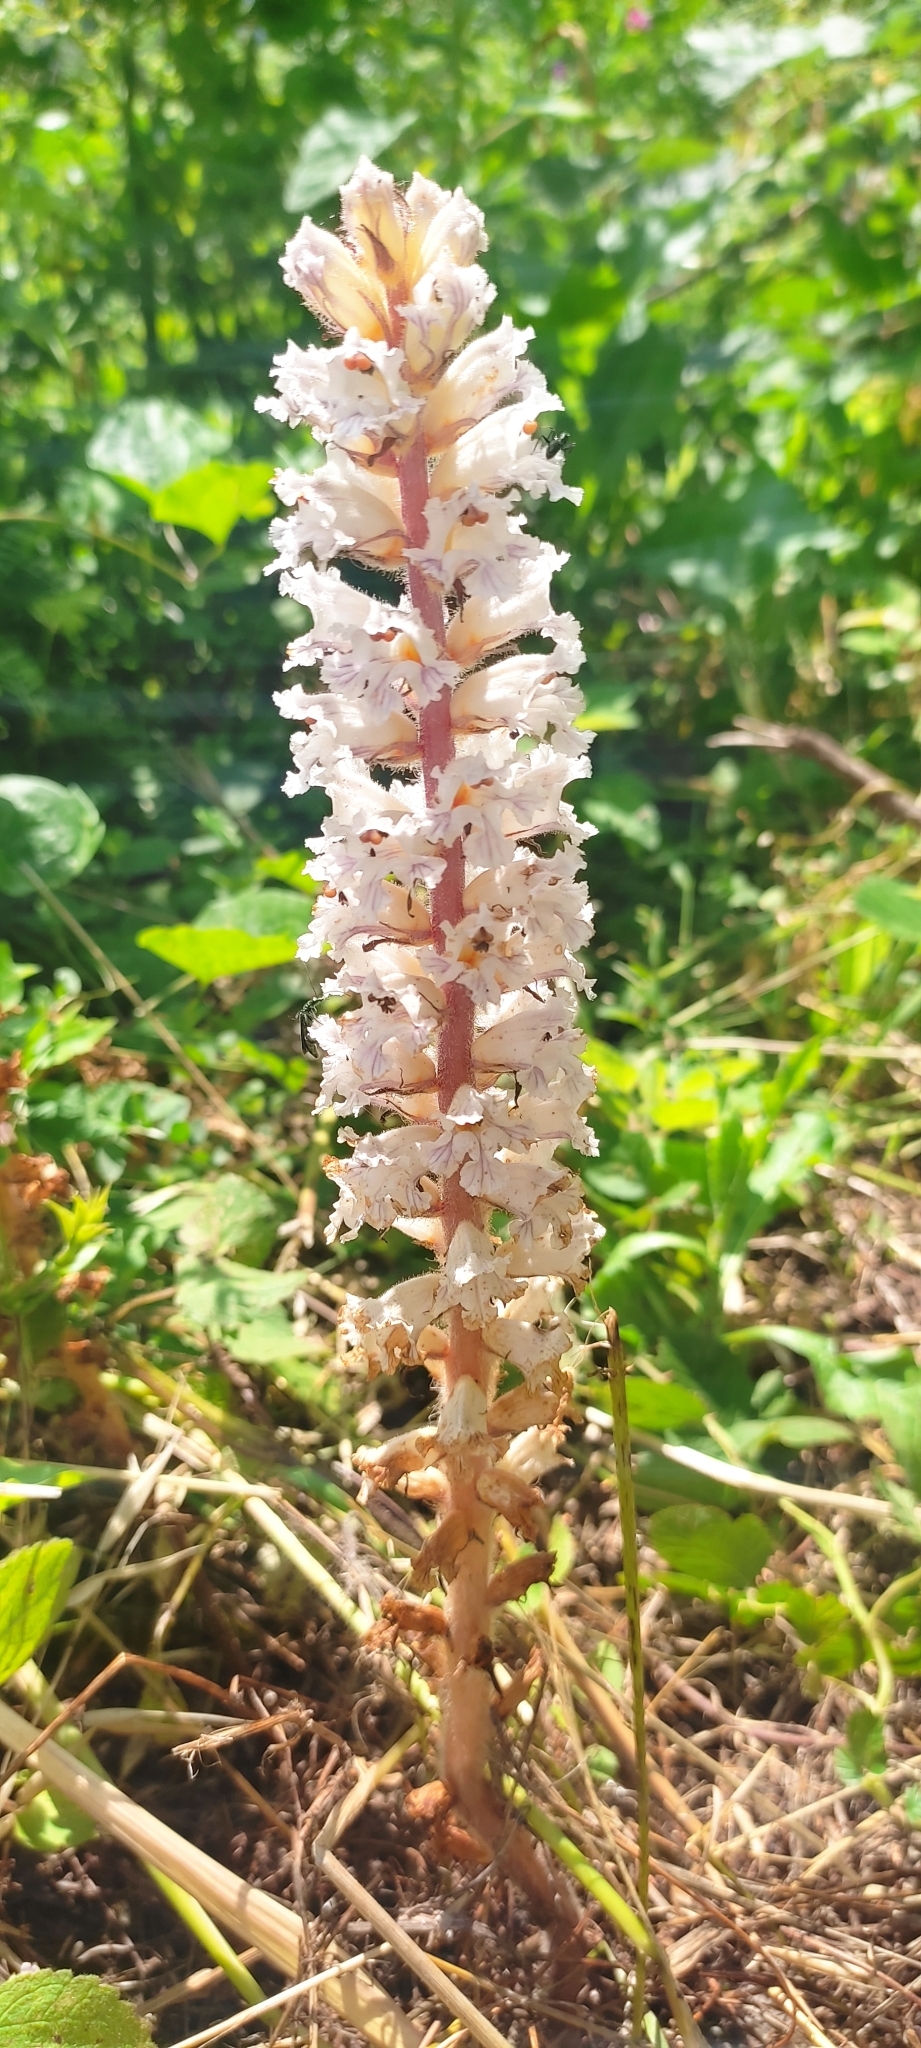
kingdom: Plantae
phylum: Tracheophyta
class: Magnoliopsida
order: Lamiales
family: Orobanchaceae
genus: Orobanche
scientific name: Orobanche crenata
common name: Bean broomrape
